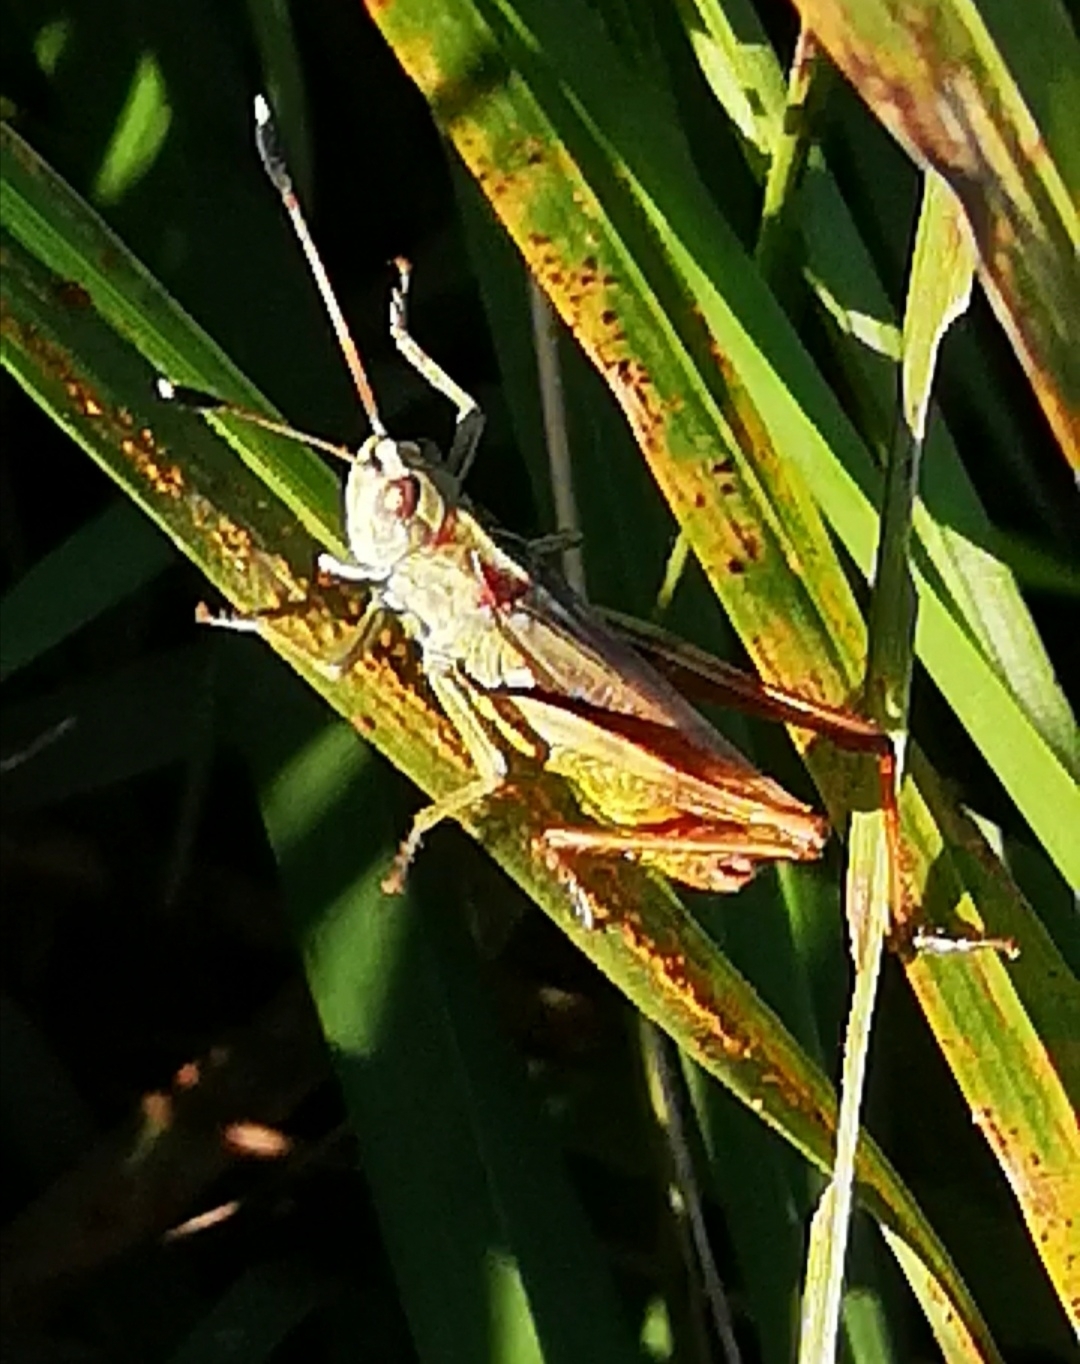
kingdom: Animalia
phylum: Arthropoda
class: Insecta
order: Orthoptera
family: Acrididae
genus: Gomphocerippus
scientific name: Gomphocerippus rufus
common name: Rufous grasshopper
